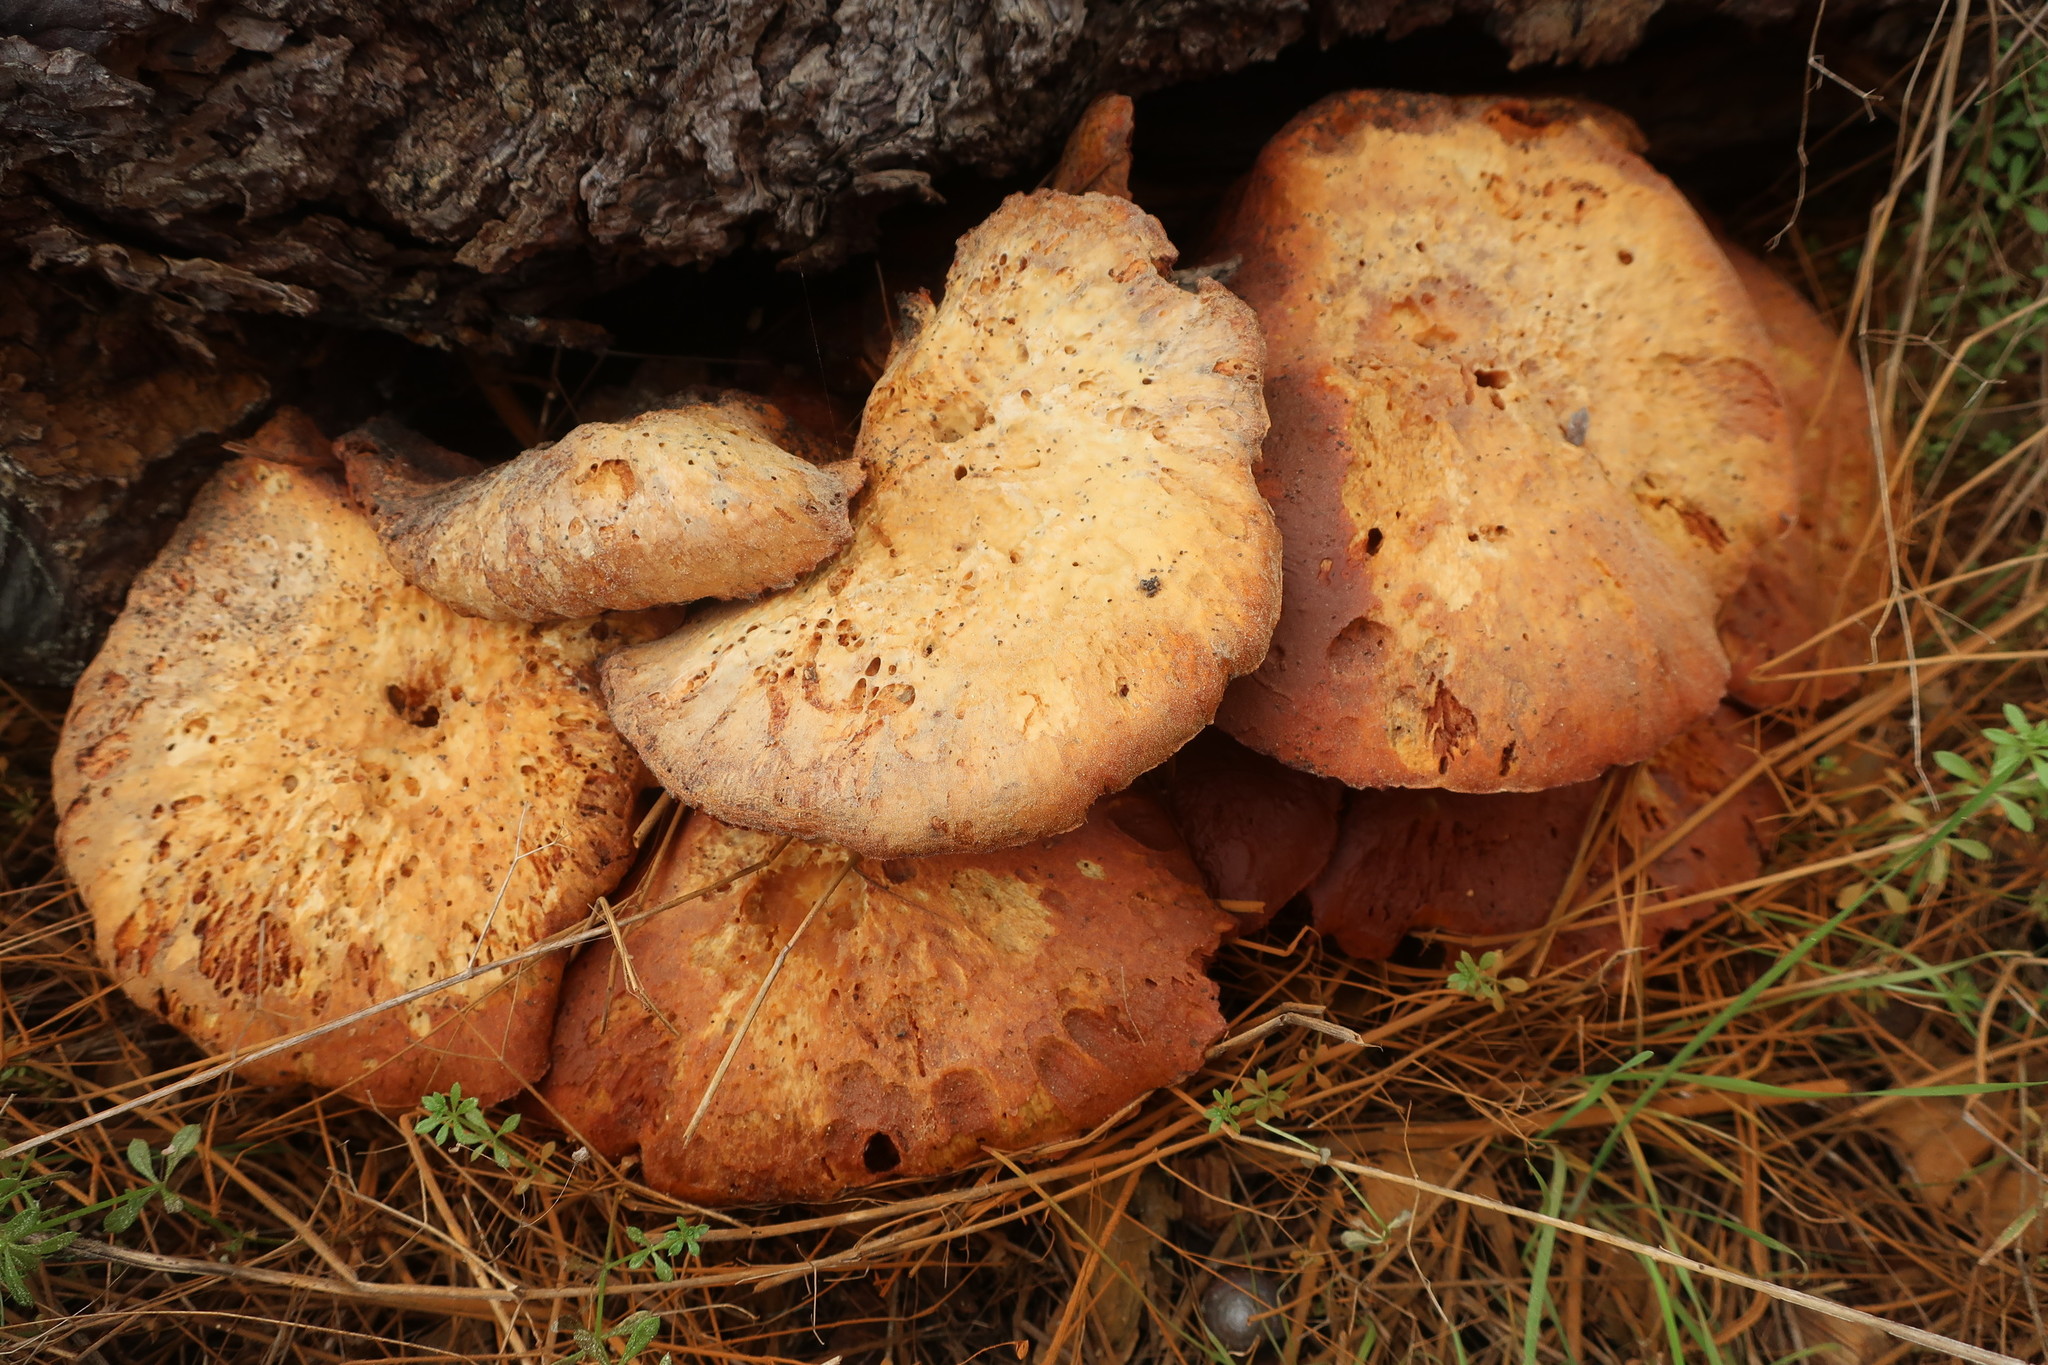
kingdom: Fungi
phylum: Basidiomycota
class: Agaricomycetes
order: Agaricales
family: Hymenogastraceae
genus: Gymnopilus
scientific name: Gymnopilus ventricosus
